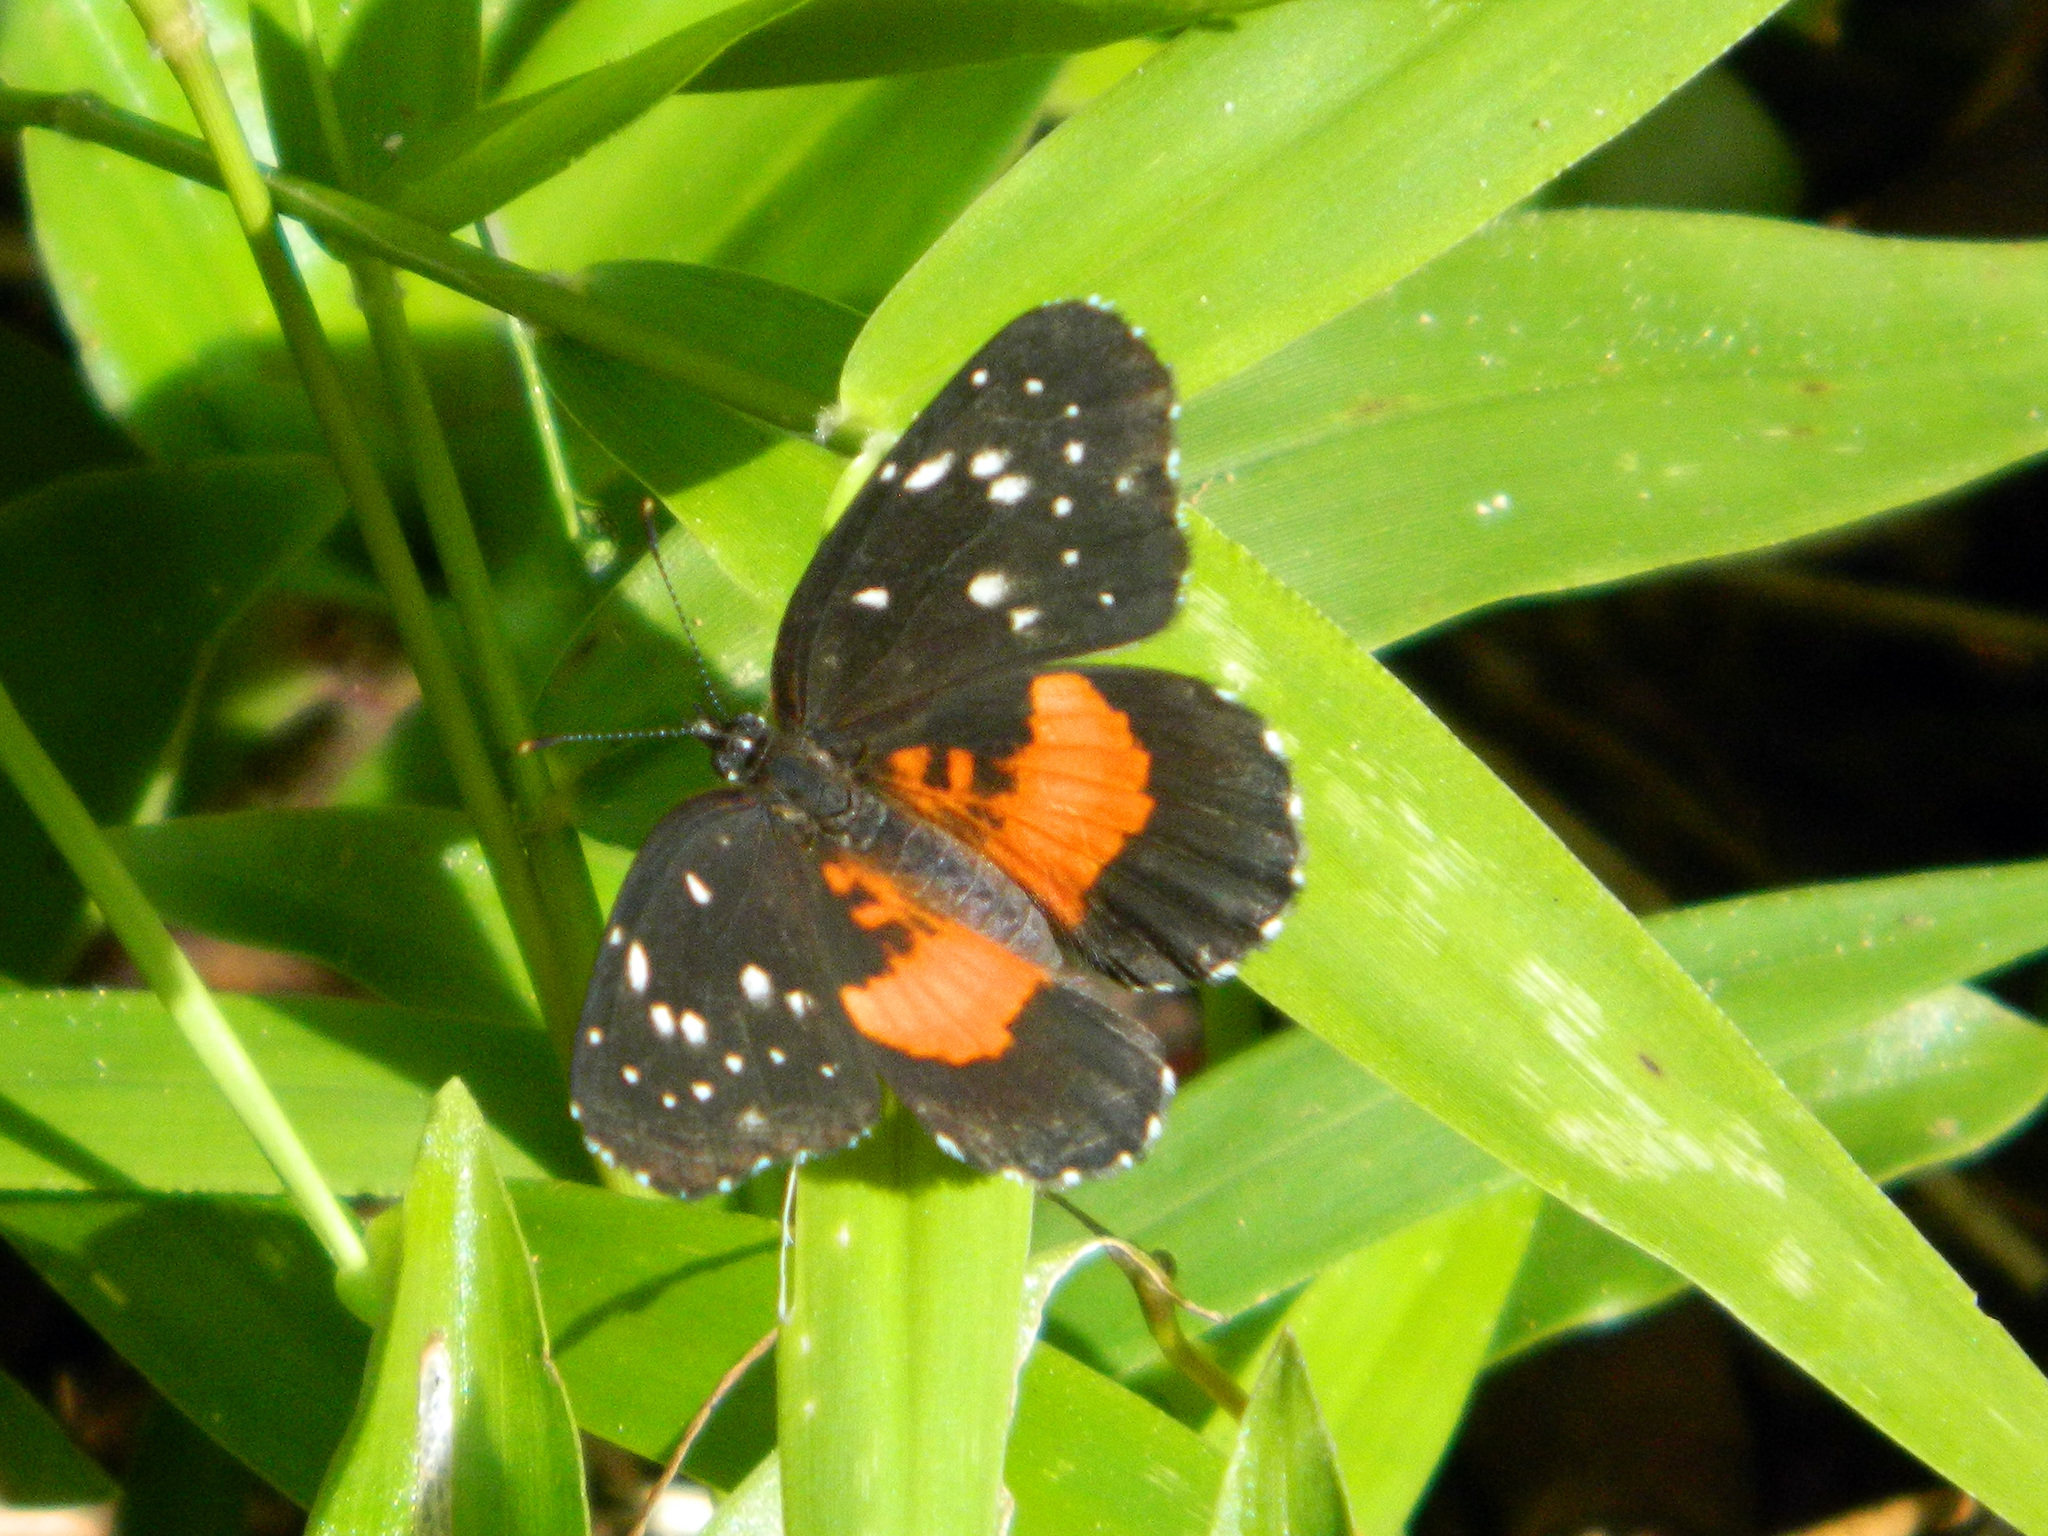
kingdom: Animalia
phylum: Arthropoda
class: Insecta
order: Lepidoptera
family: Nymphalidae
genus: Chlosyne
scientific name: Chlosyne lacinia
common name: Bordered patch
